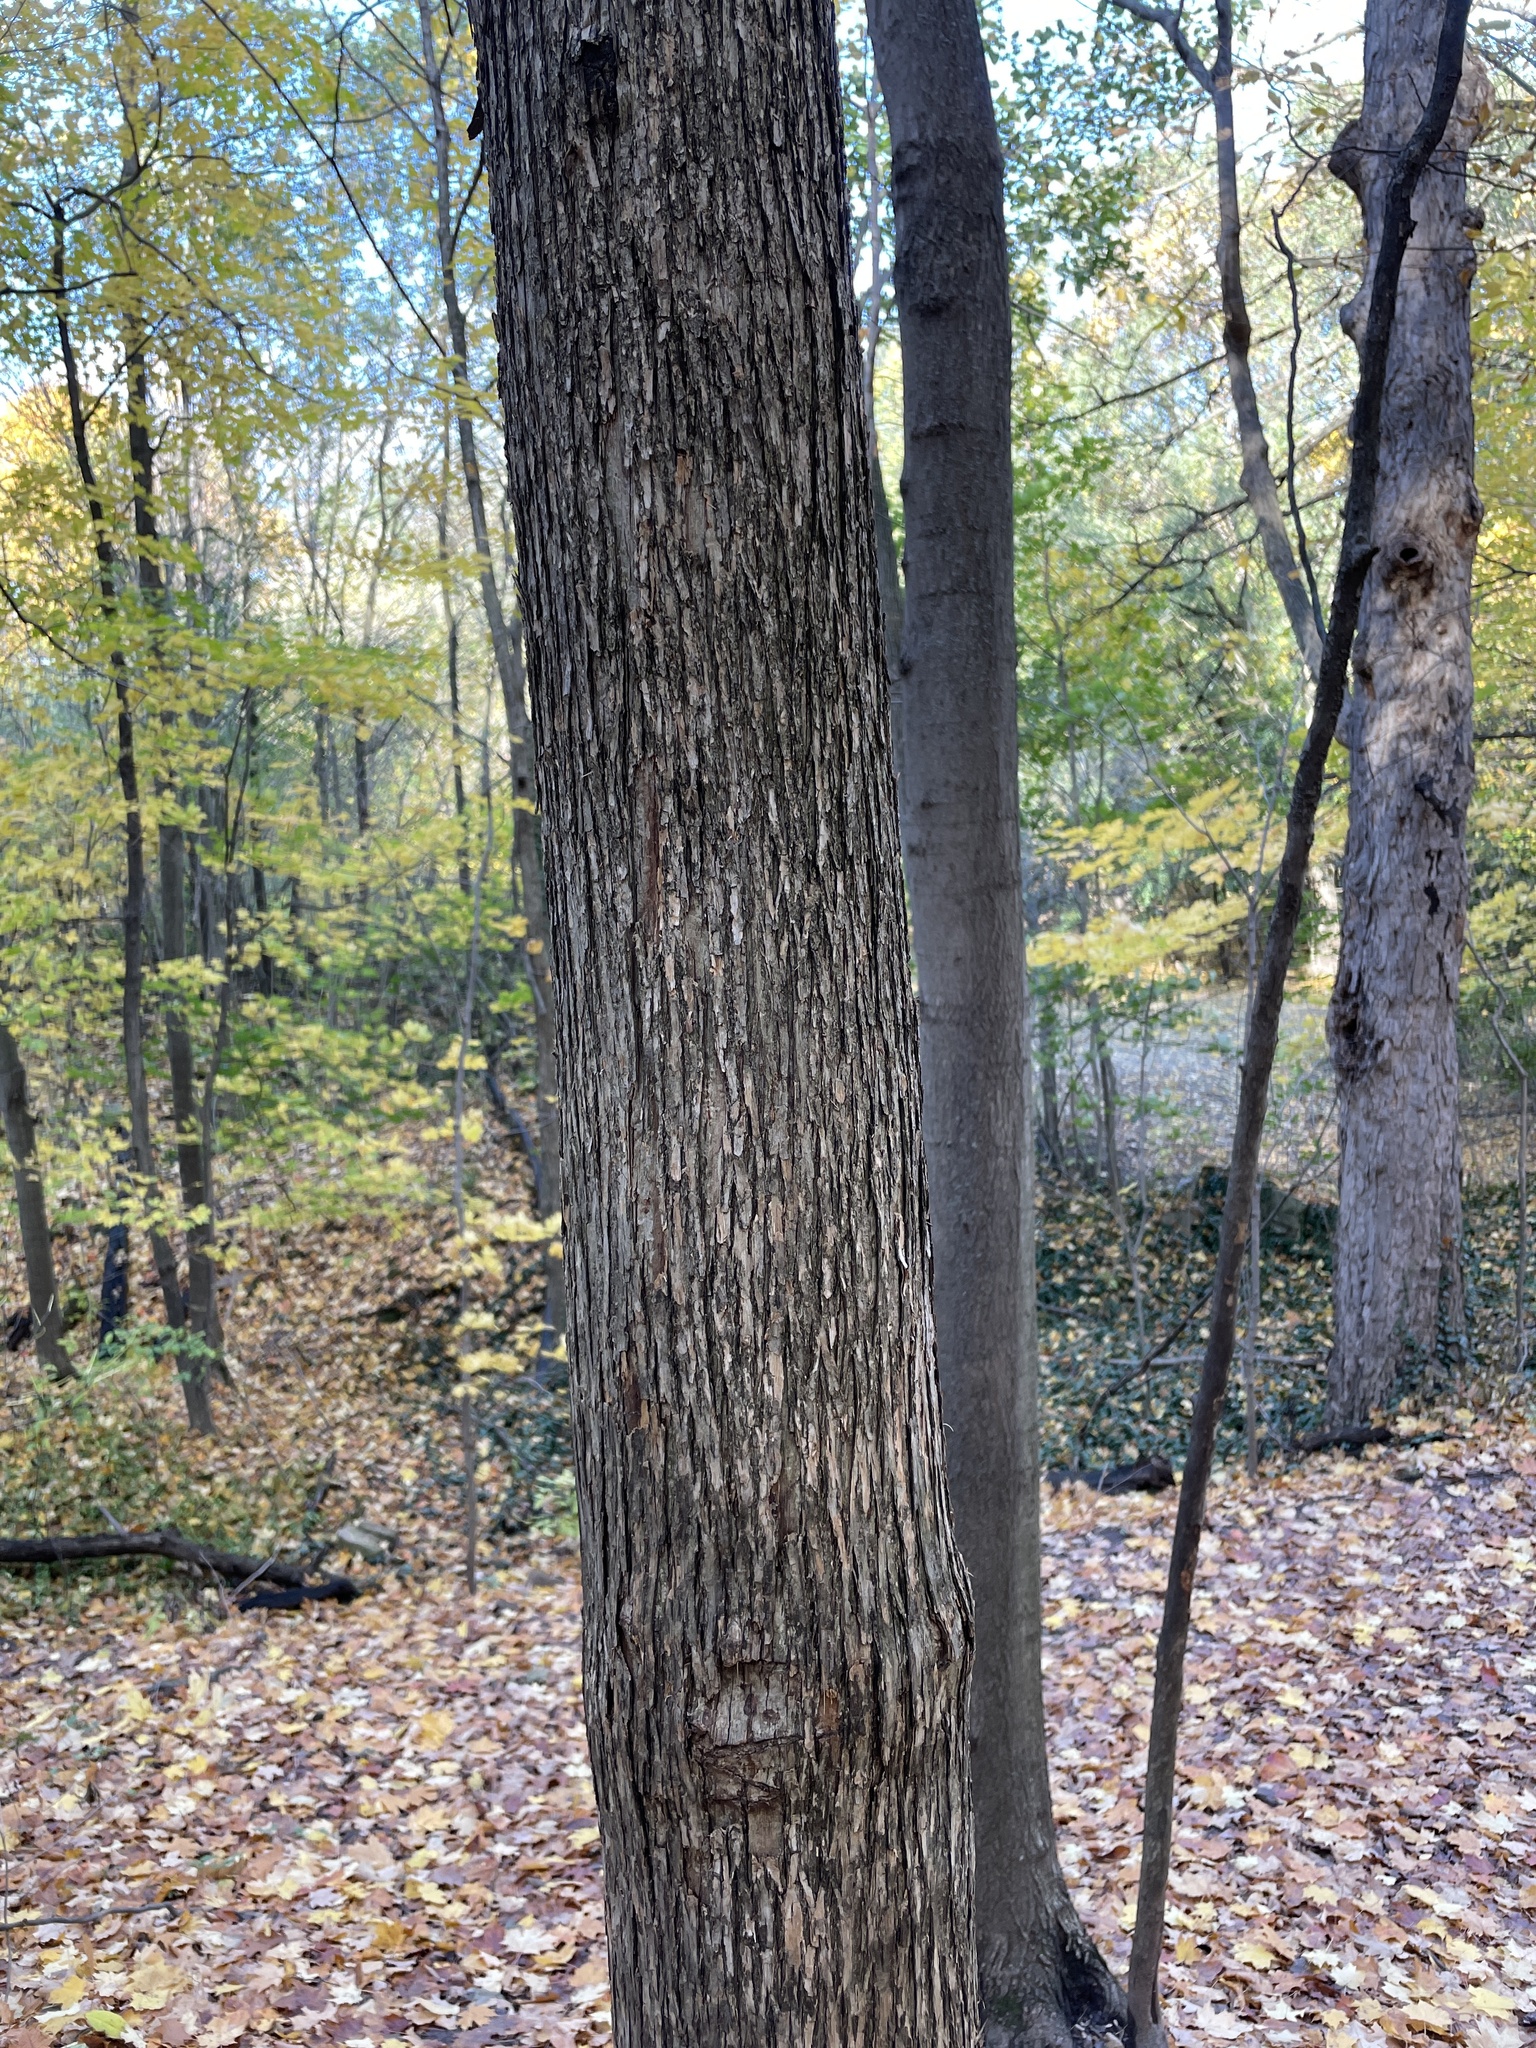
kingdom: Plantae
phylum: Tracheophyta
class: Magnoliopsida
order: Fagales
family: Betulaceae
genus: Ostrya
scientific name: Ostrya virginiana
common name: Ironwood
